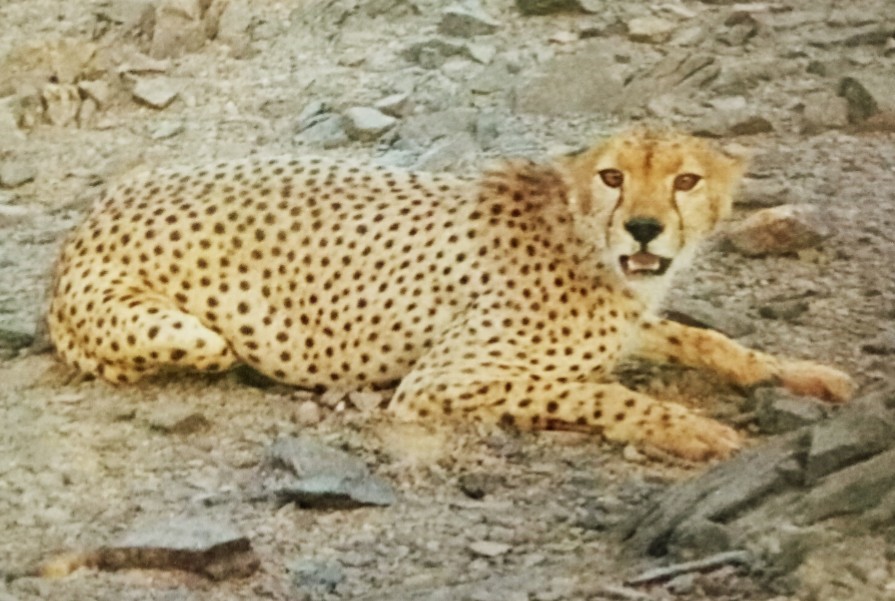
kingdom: Animalia
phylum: Chordata
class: Mammalia
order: Carnivora
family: Felidae
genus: Acinonyx
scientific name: Acinonyx jubatus
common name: Cheetah
